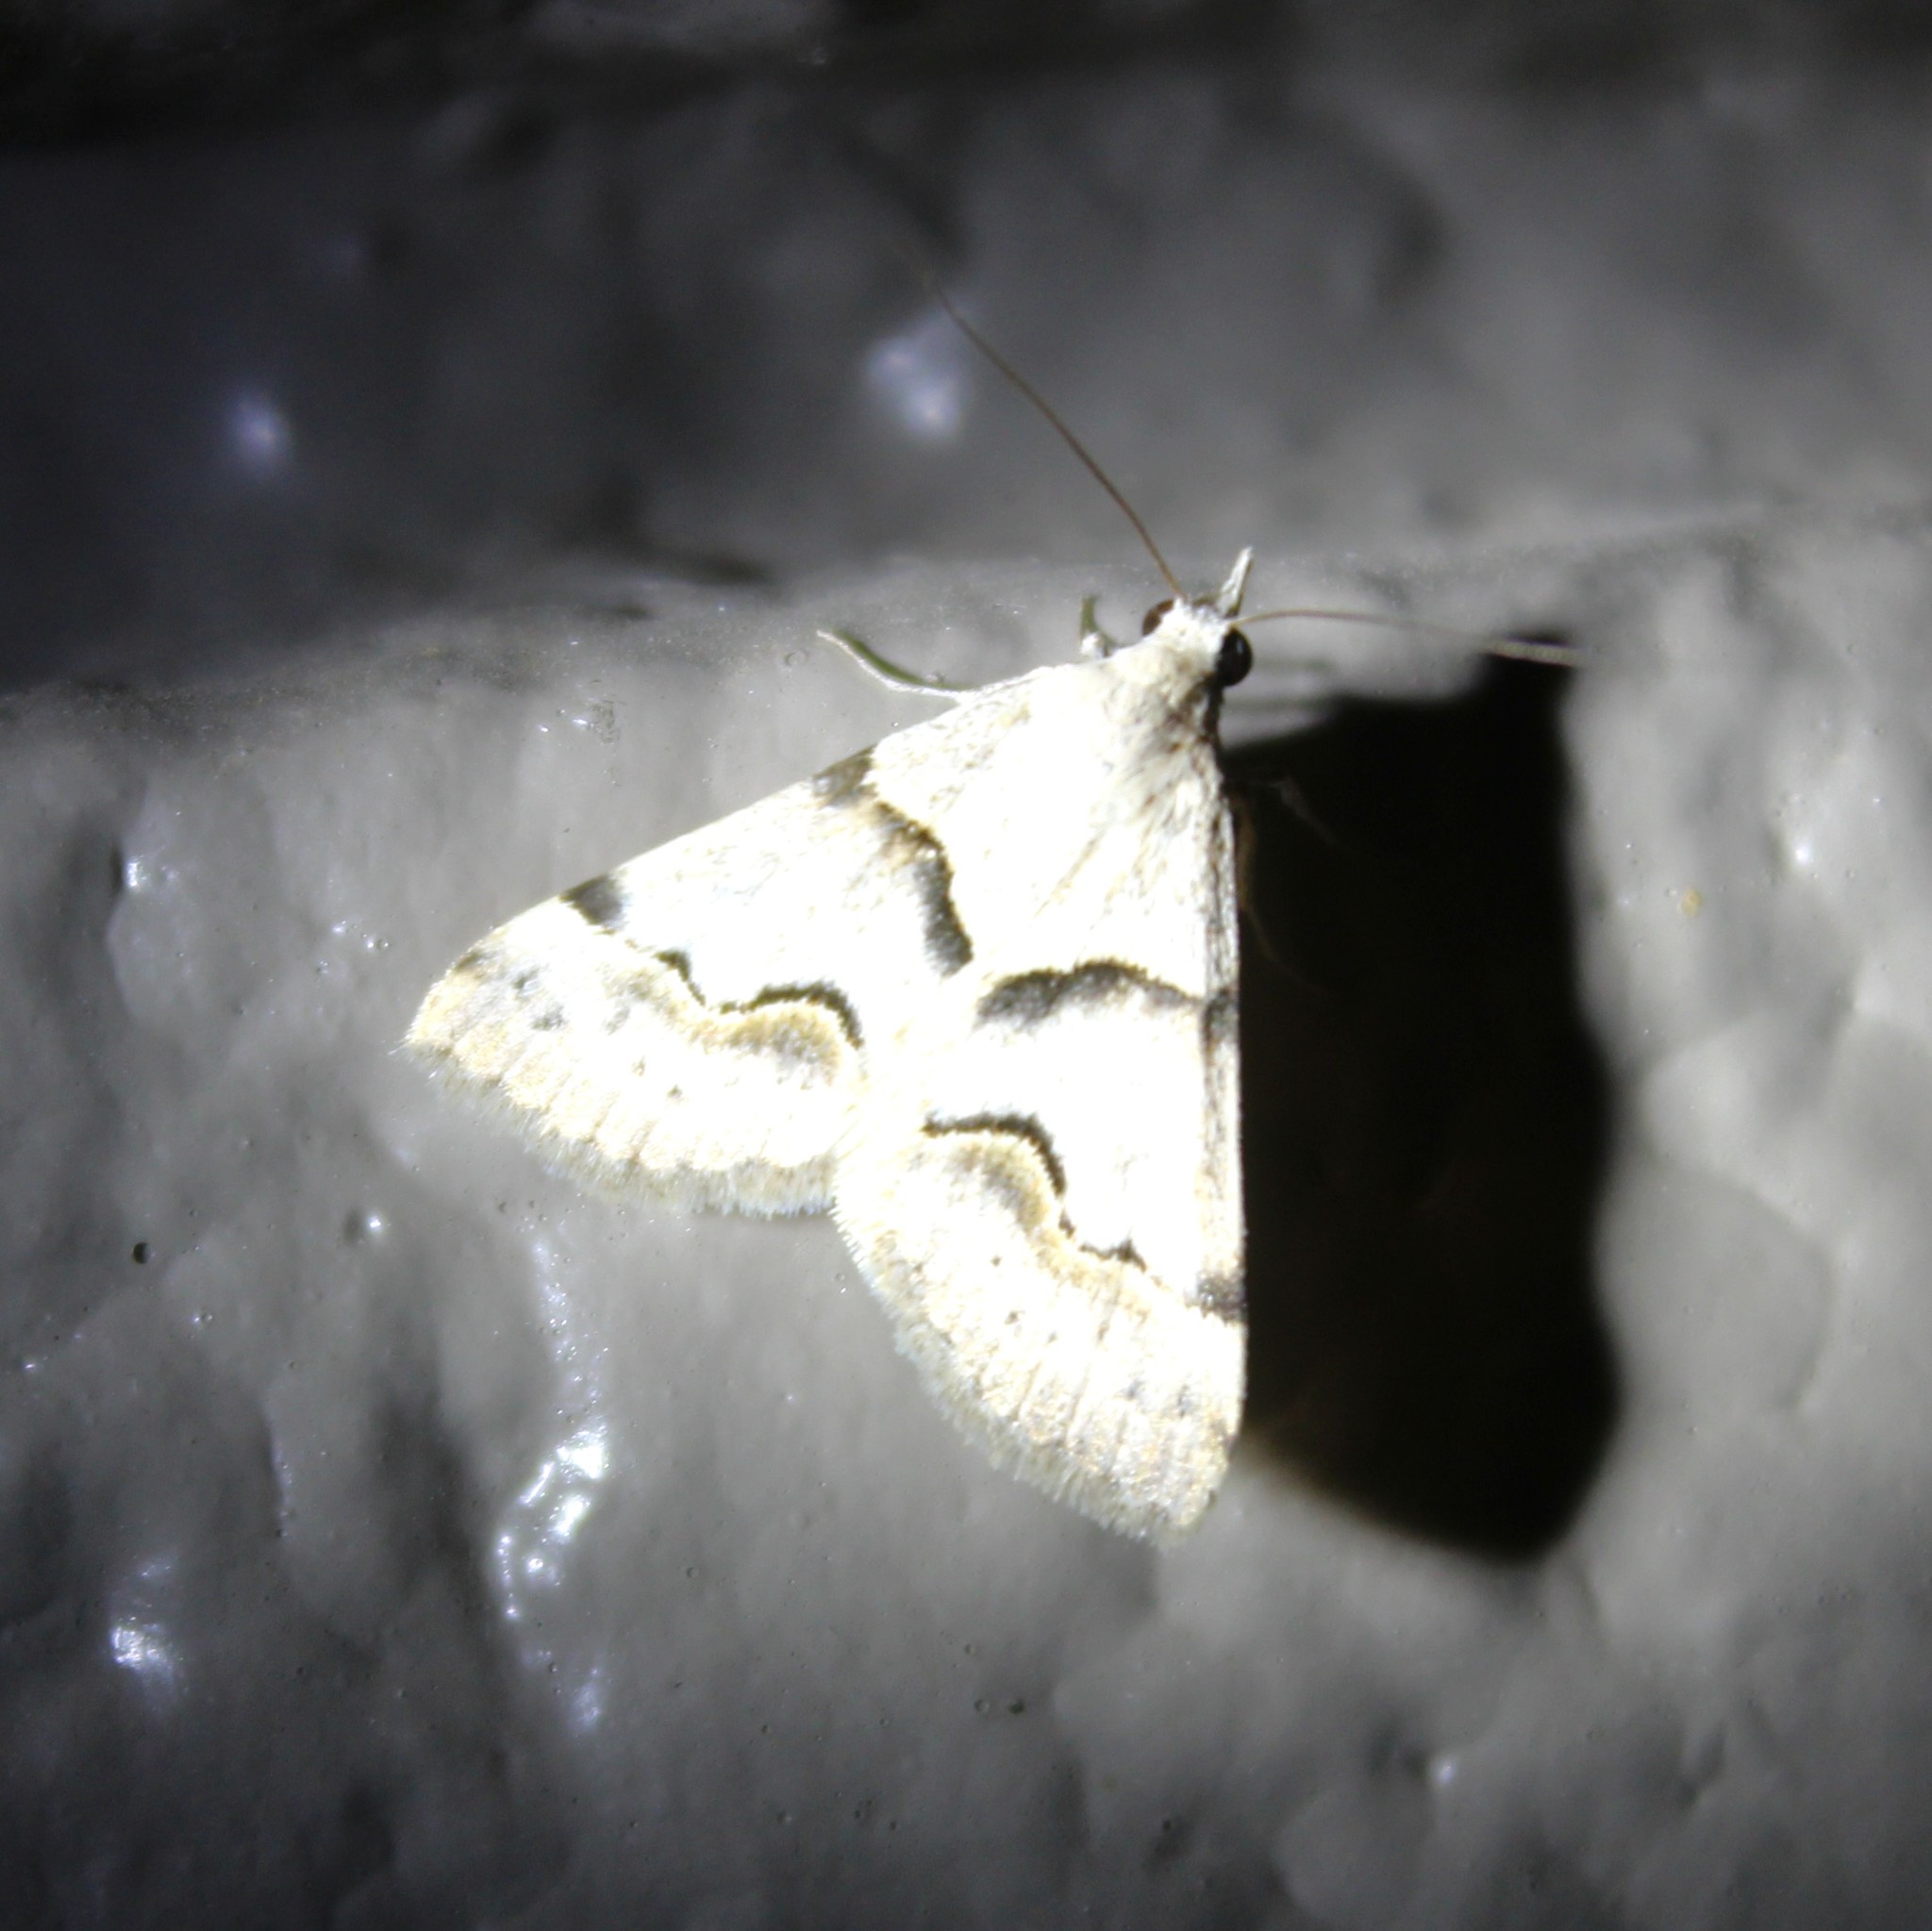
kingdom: Animalia
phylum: Arthropoda
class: Insecta
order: Lepidoptera
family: Erebidae
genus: Hemeroplanis
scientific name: Hemeroplanis incusalis
